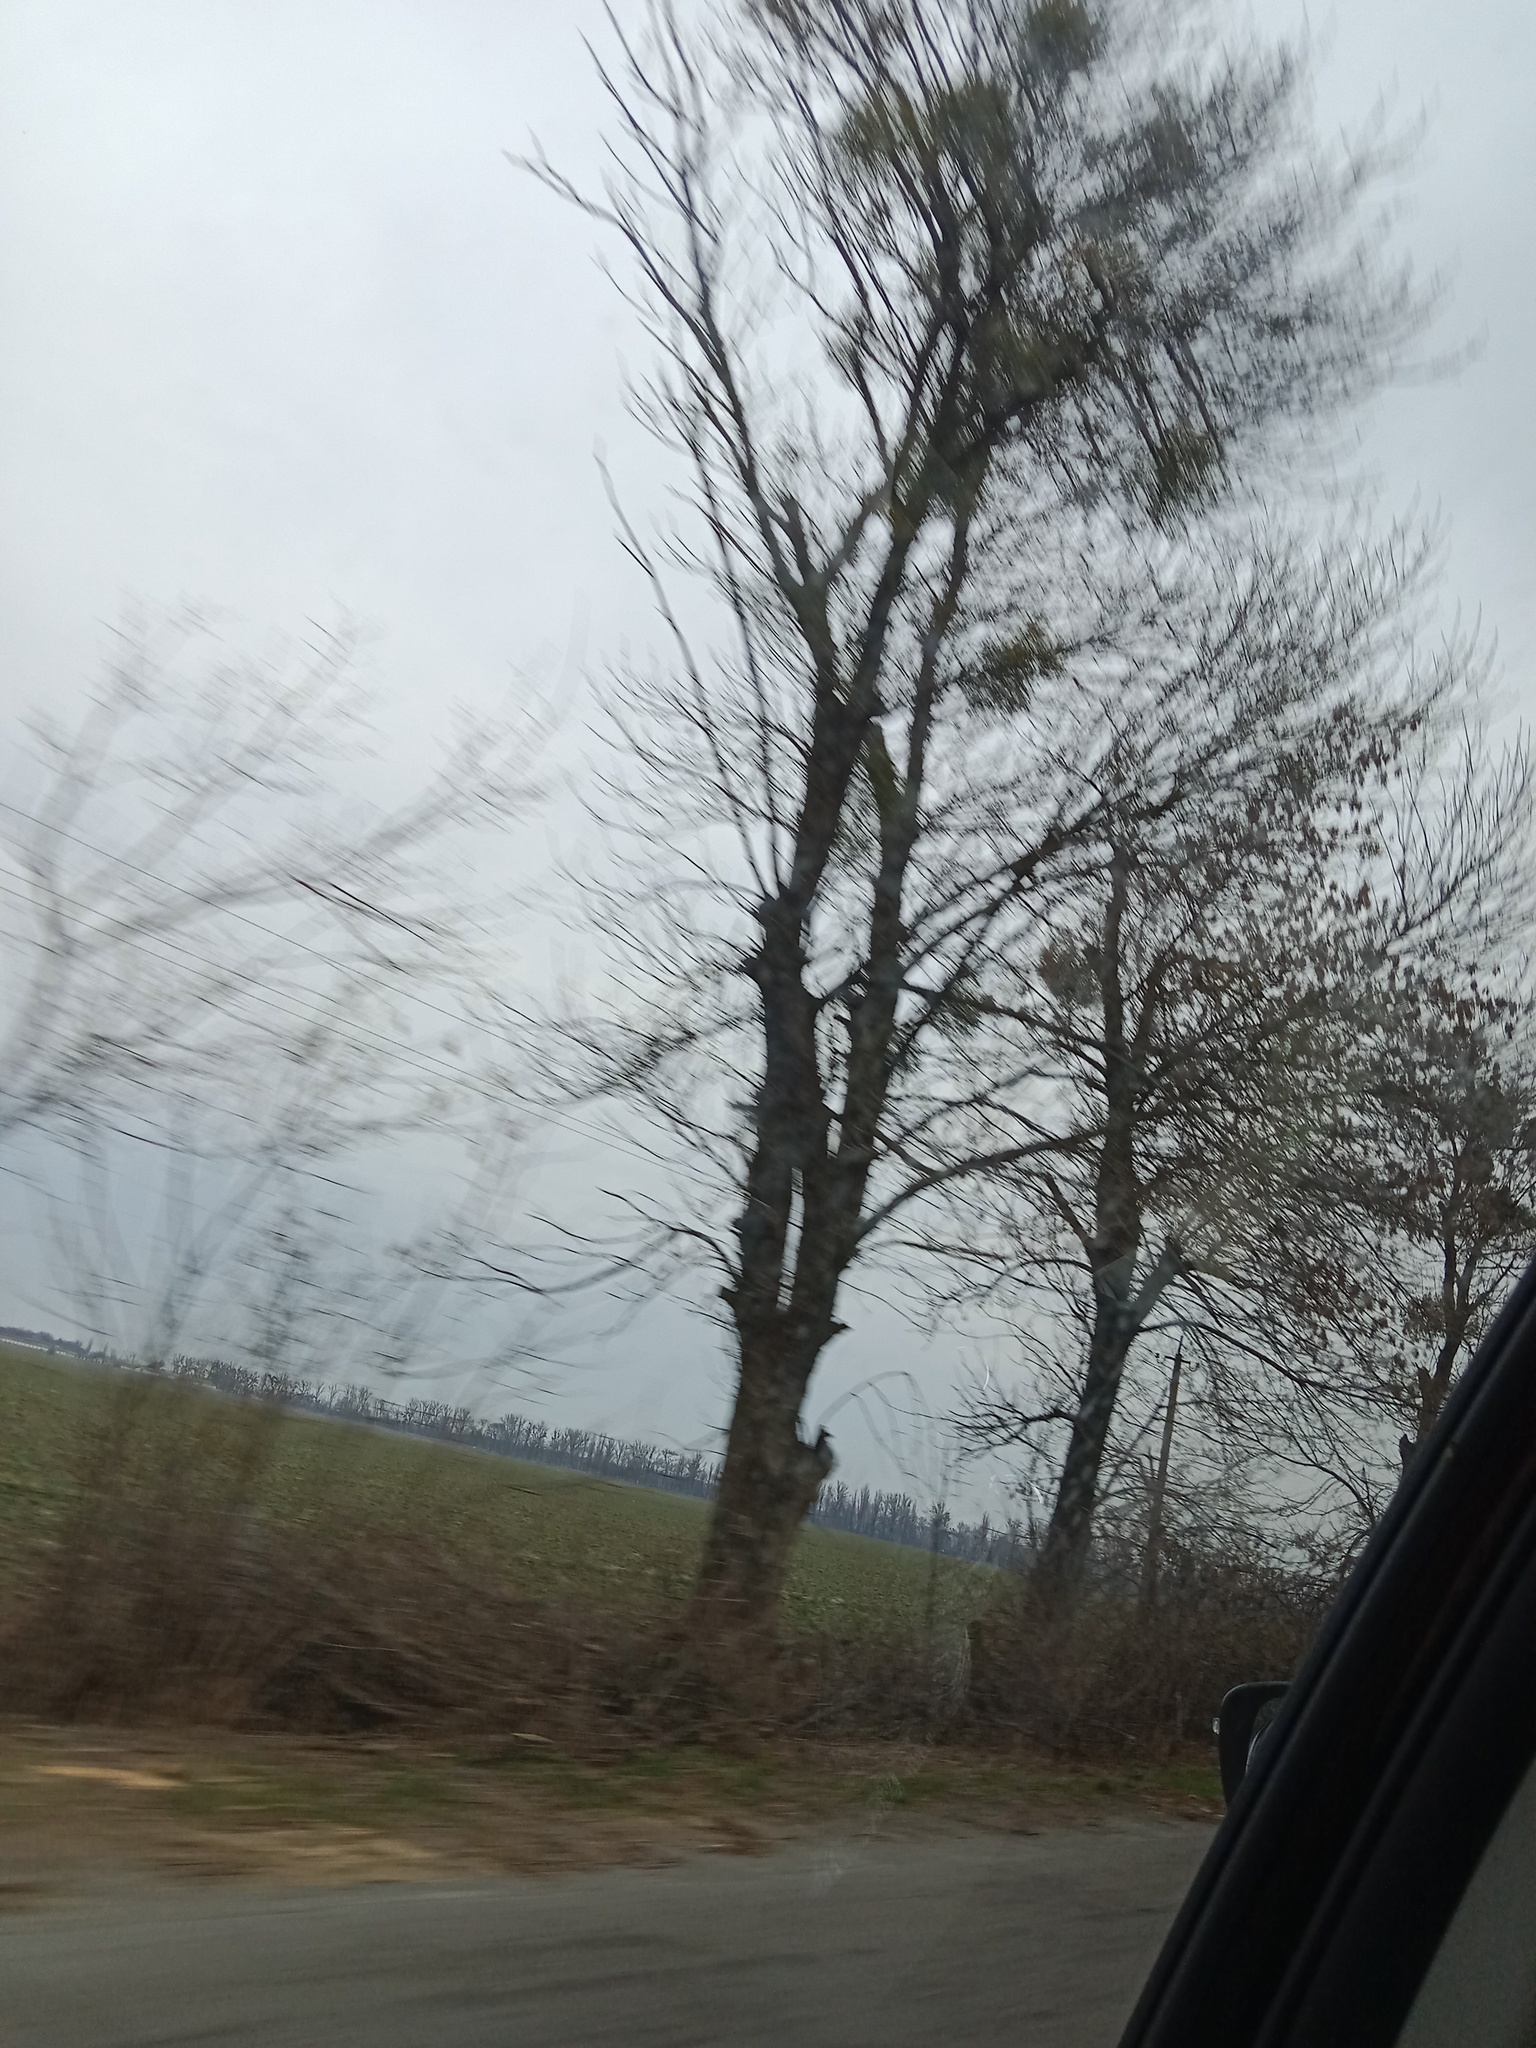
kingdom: Plantae
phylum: Tracheophyta
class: Magnoliopsida
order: Santalales
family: Viscaceae
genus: Viscum
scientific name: Viscum album
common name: Mistletoe
